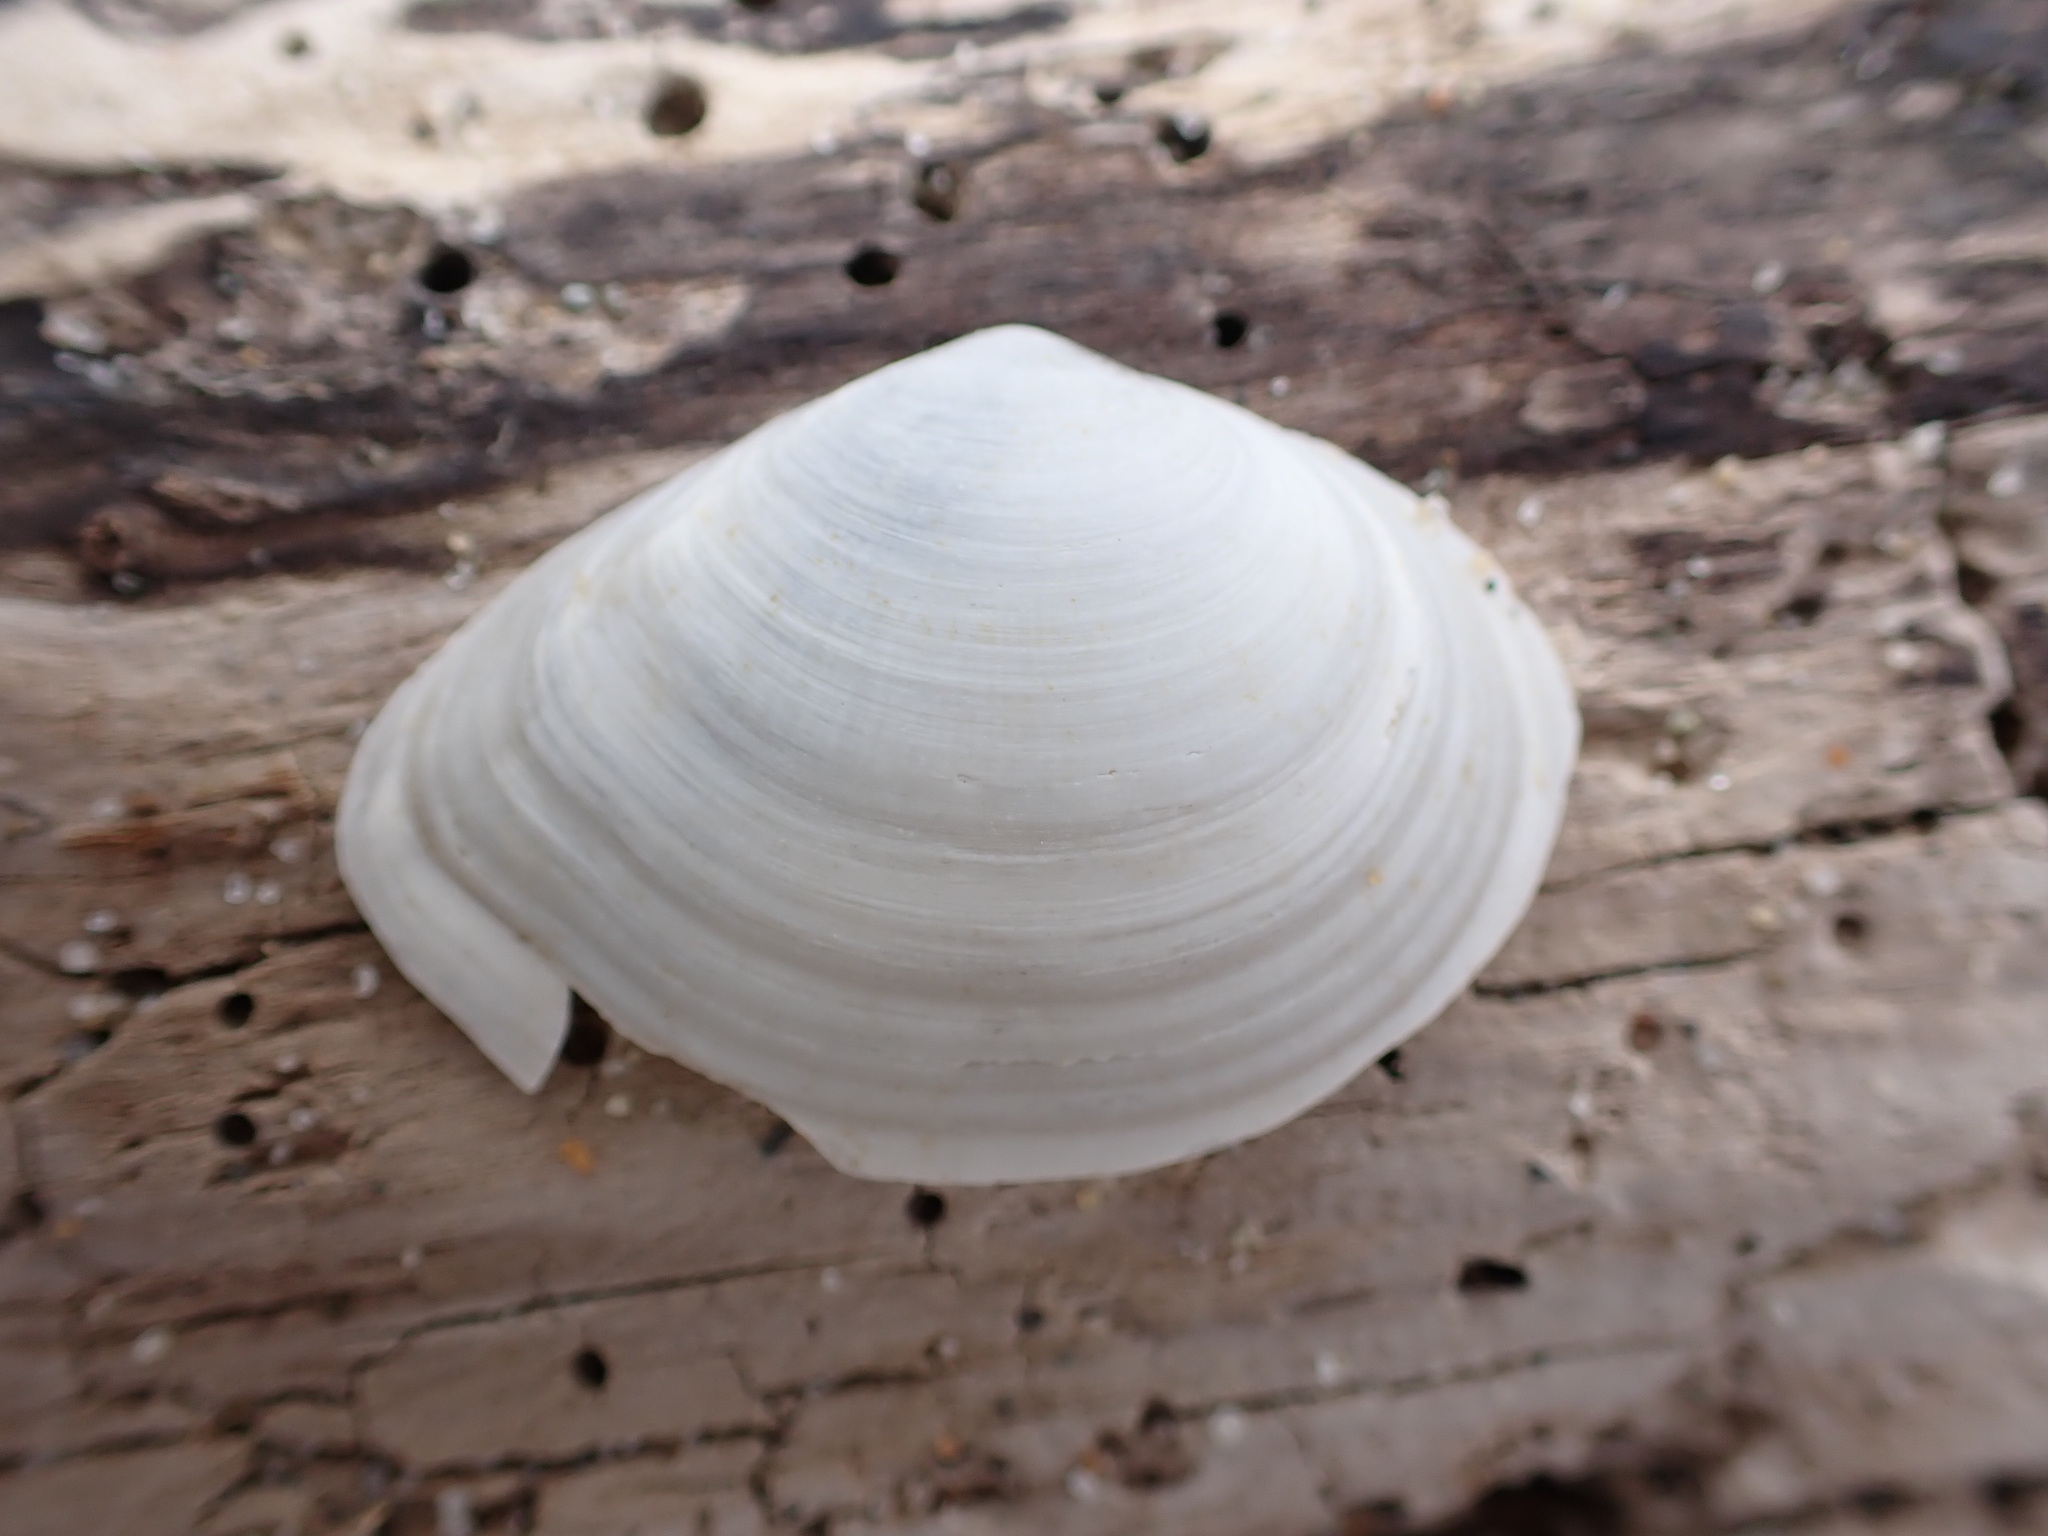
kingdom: Animalia
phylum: Mollusca
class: Bivalvia
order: Cardiida
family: Tellinidae
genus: Macoma
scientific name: Macoma nasuta
